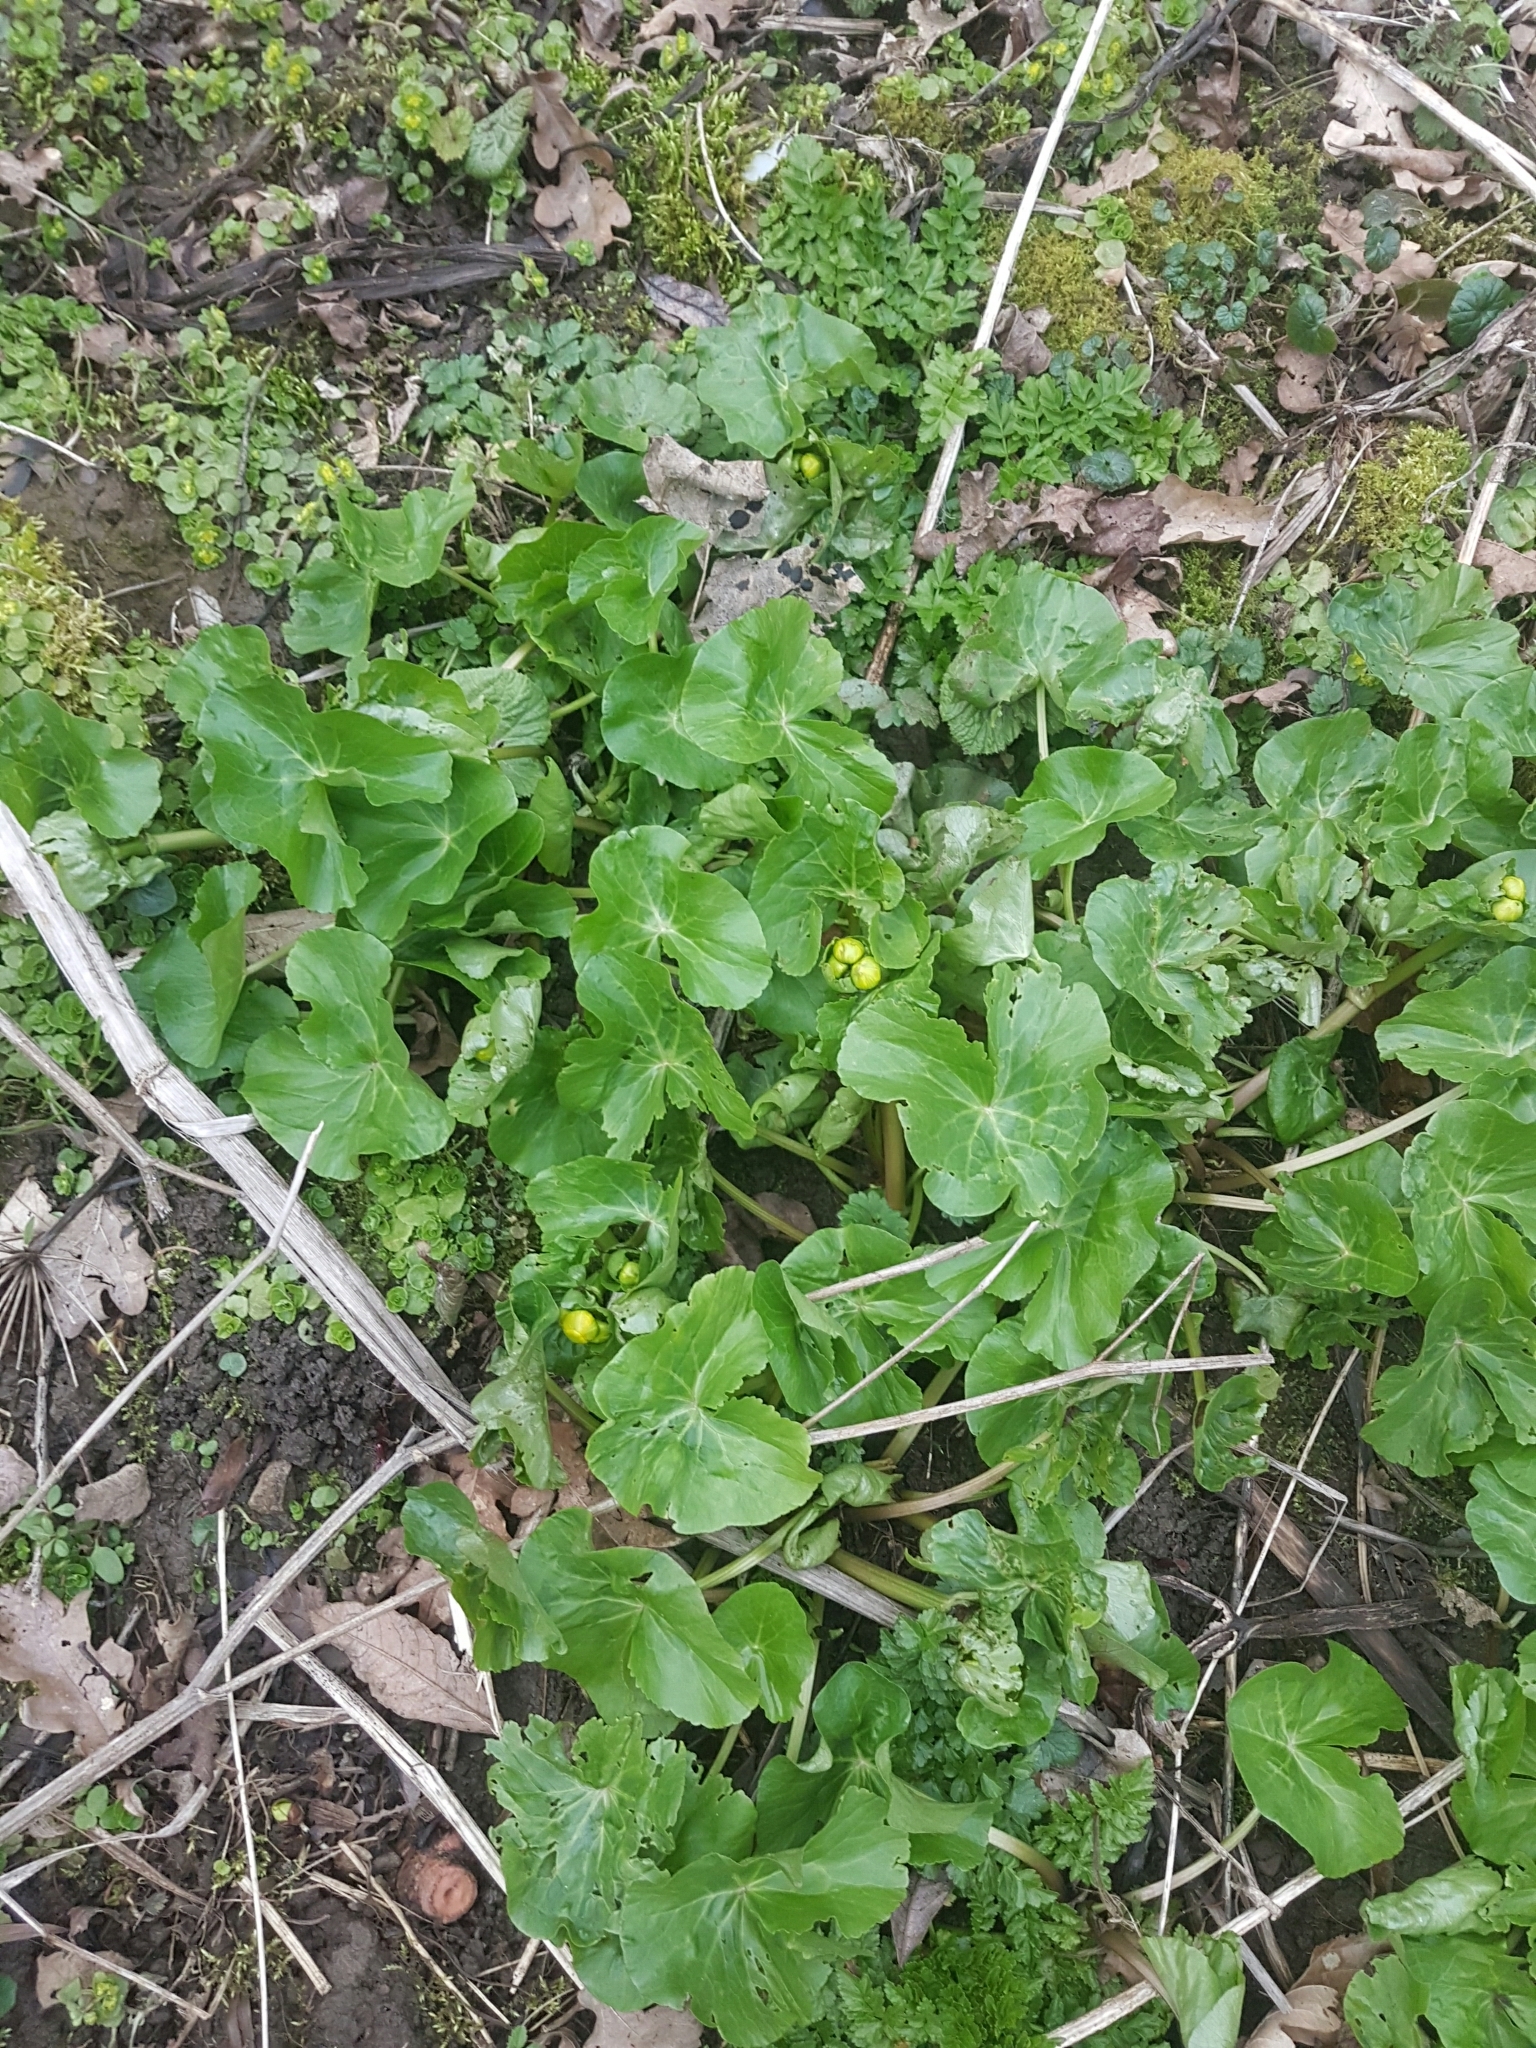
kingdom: Plantae
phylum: Tracheophyta
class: Magnoliopsida
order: Ranunculales
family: Ranunculaceae
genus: Caltha
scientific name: Caltha palustris
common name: Marsh marigold
